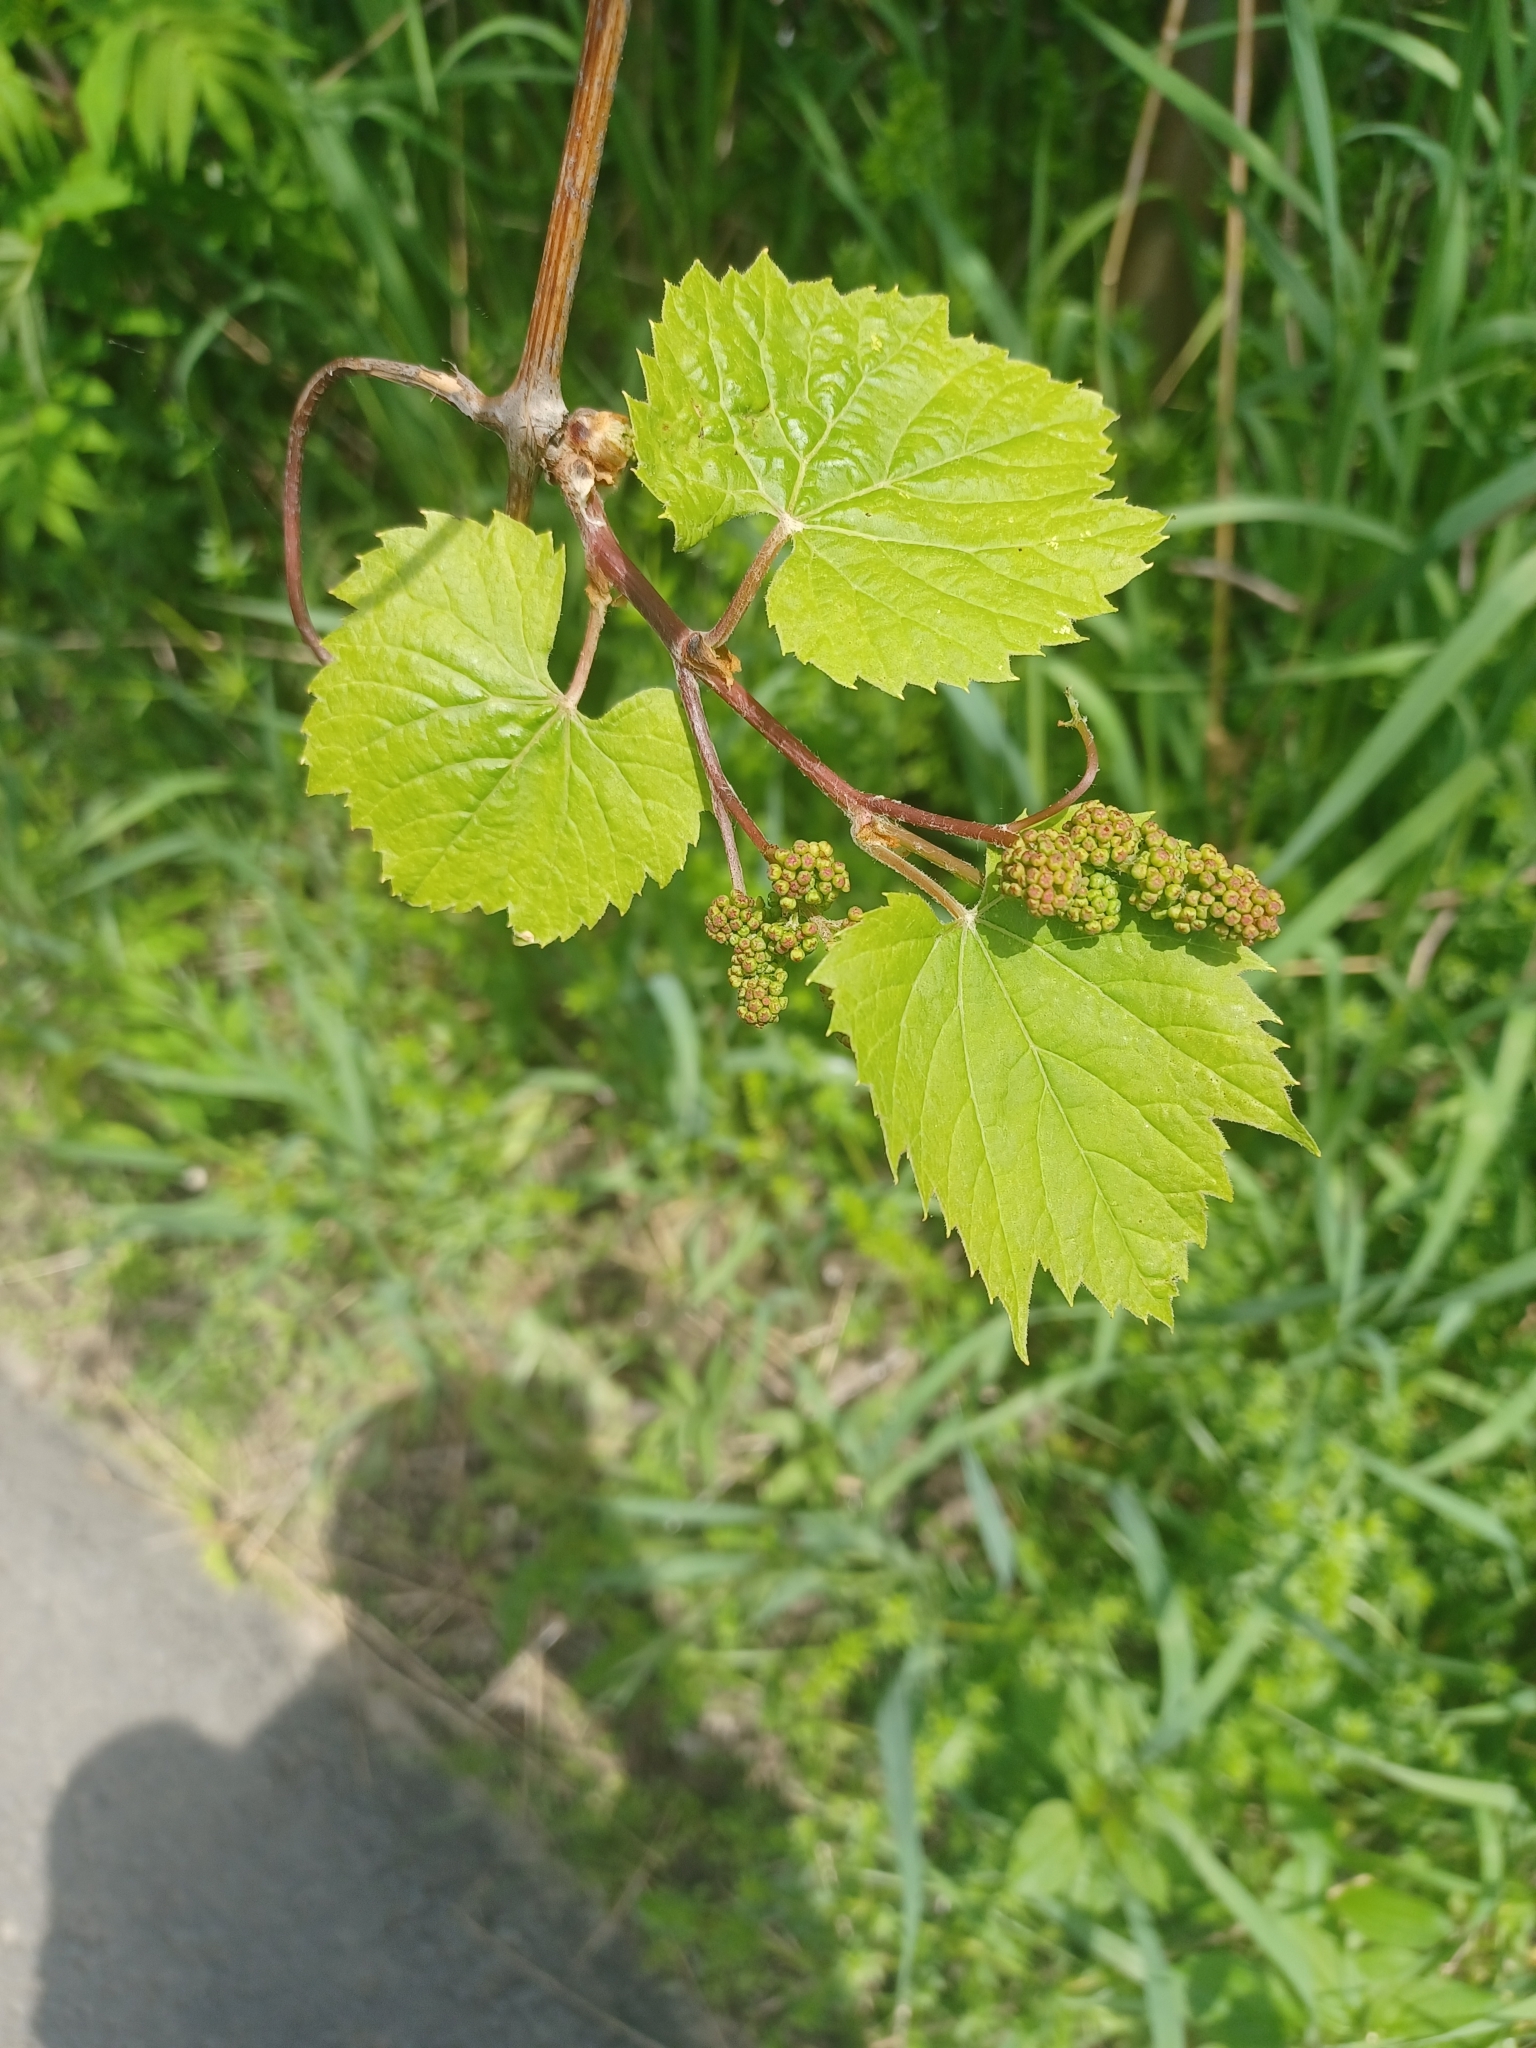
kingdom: Plantae
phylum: Tracheophyta
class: Magnoliopsida
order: Vitales
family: Vitaceae
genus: Vitis
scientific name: Vitis riparia
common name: Frost grape
